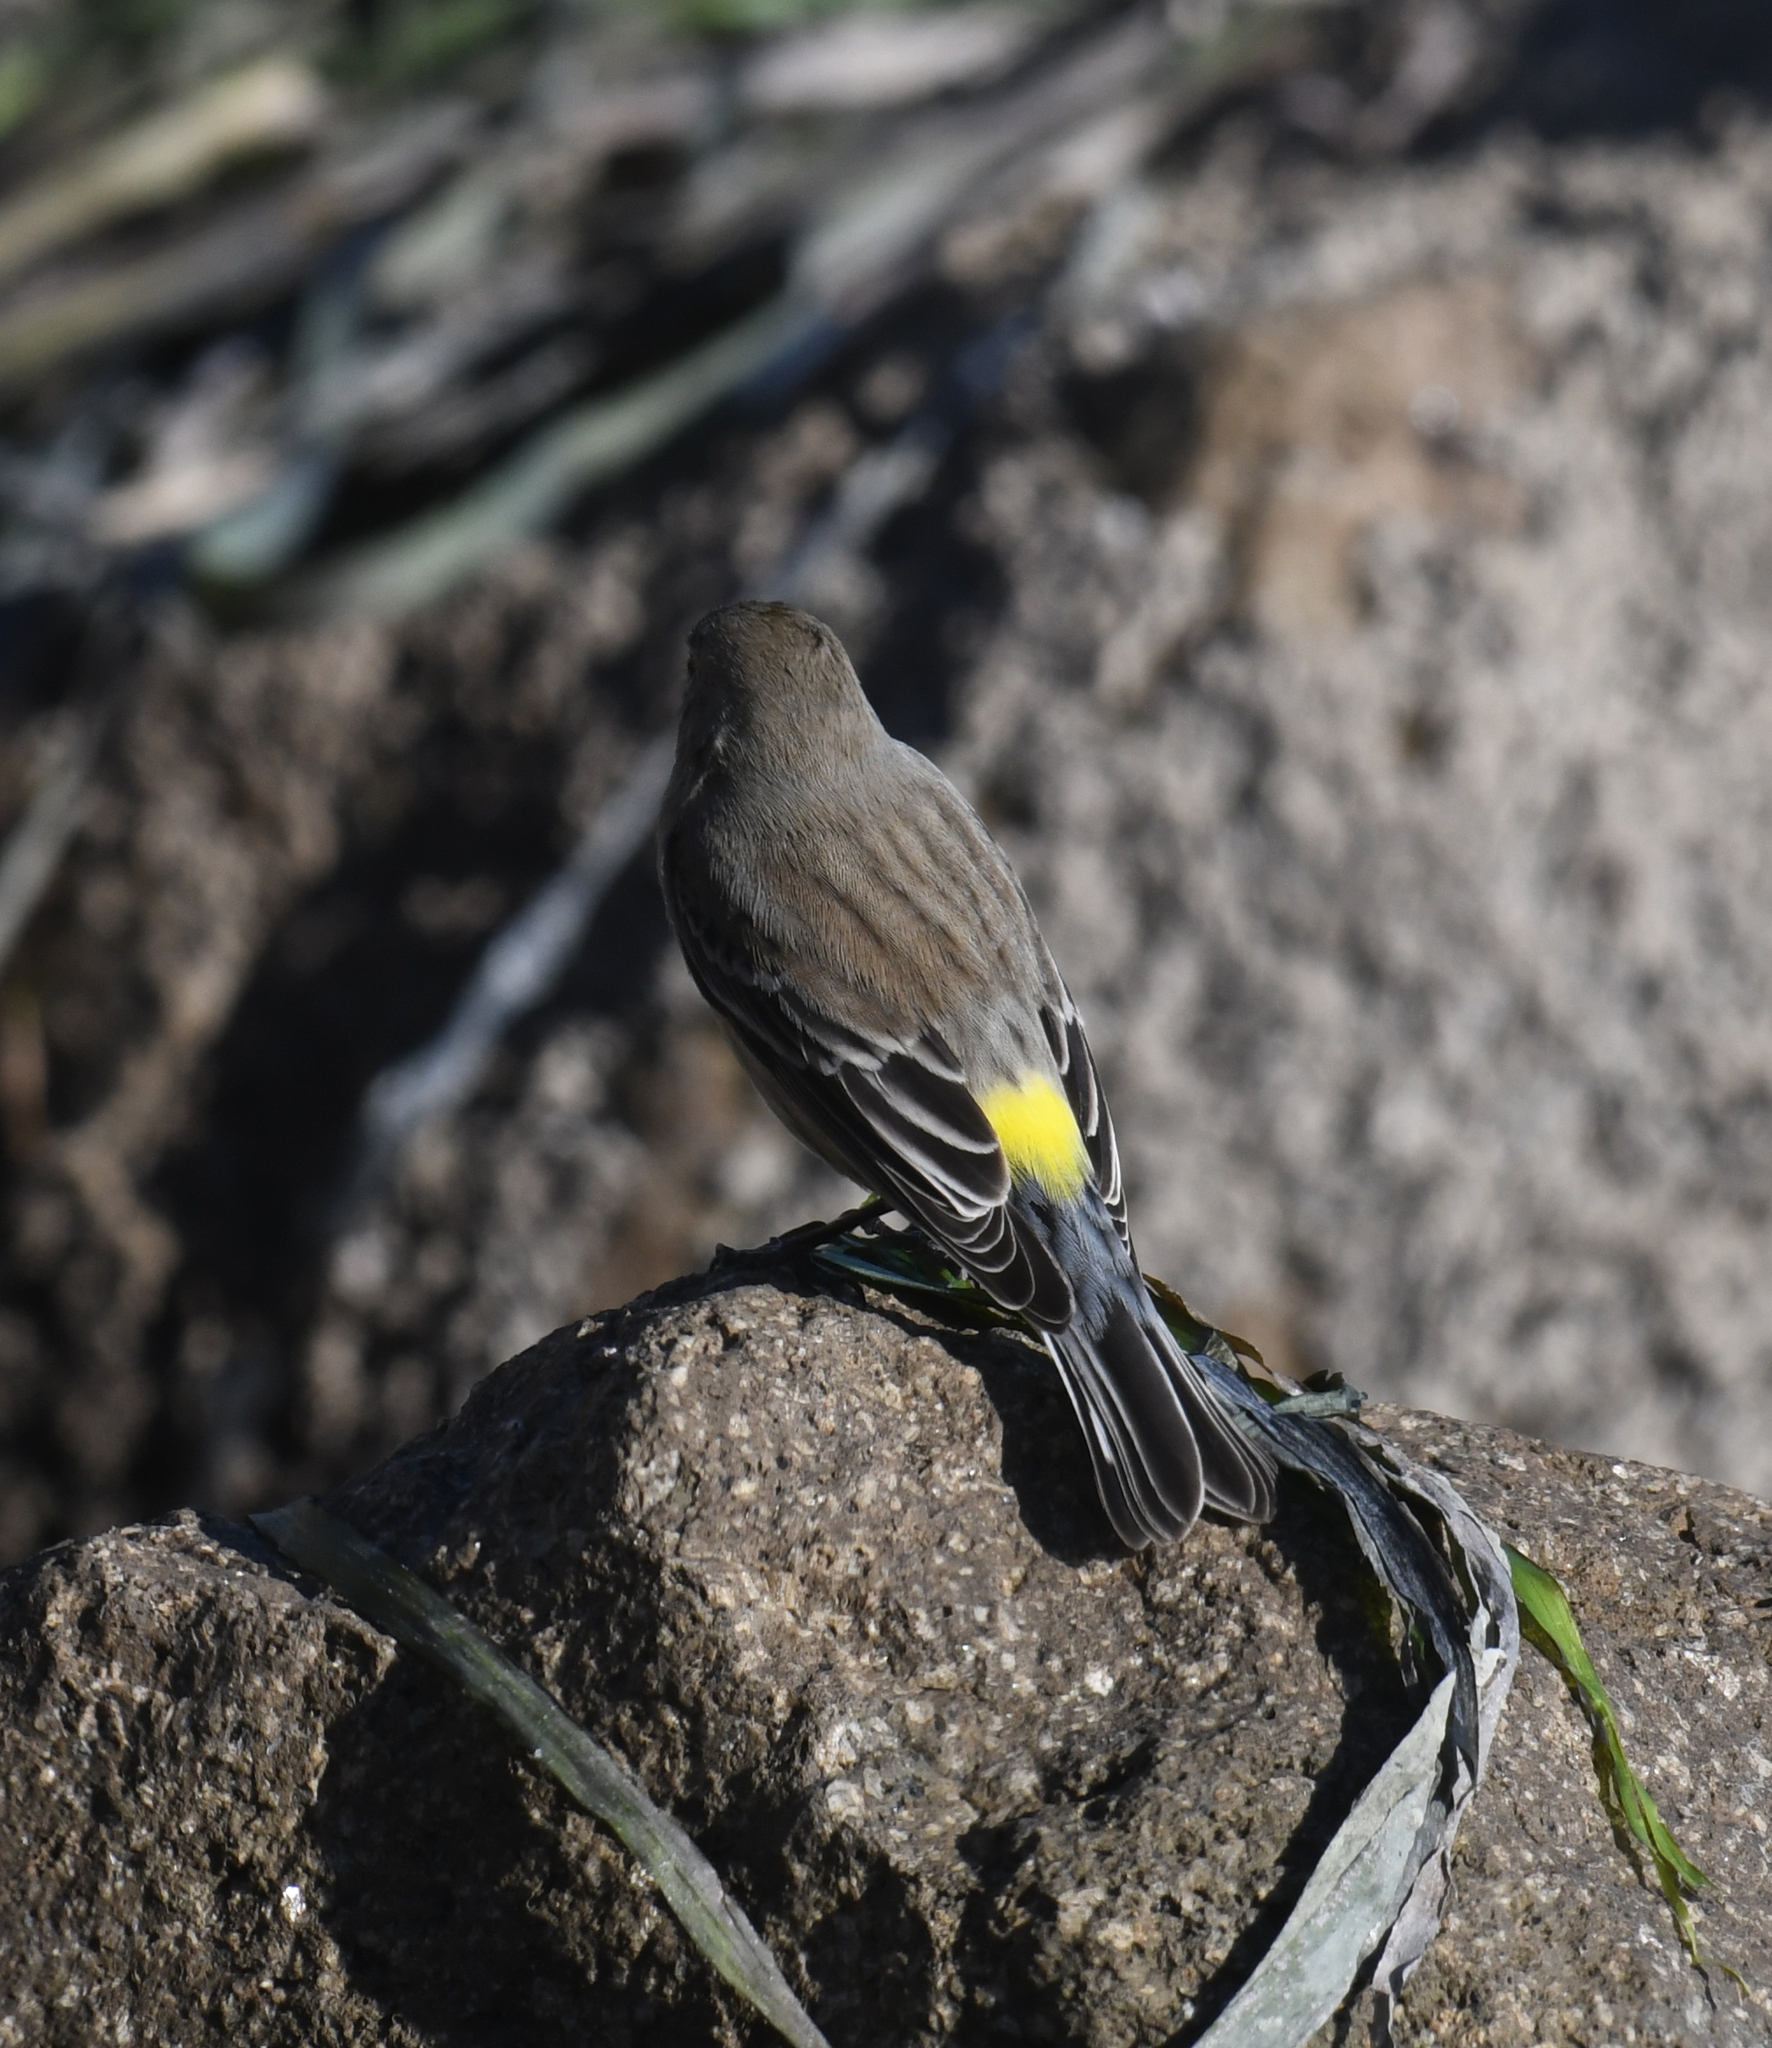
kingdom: Animalia
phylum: Chordata
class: Aves
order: Passeriformes
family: Parulidae
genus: Setophaga
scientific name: Setophaga coronata
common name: Myrtle warbler
